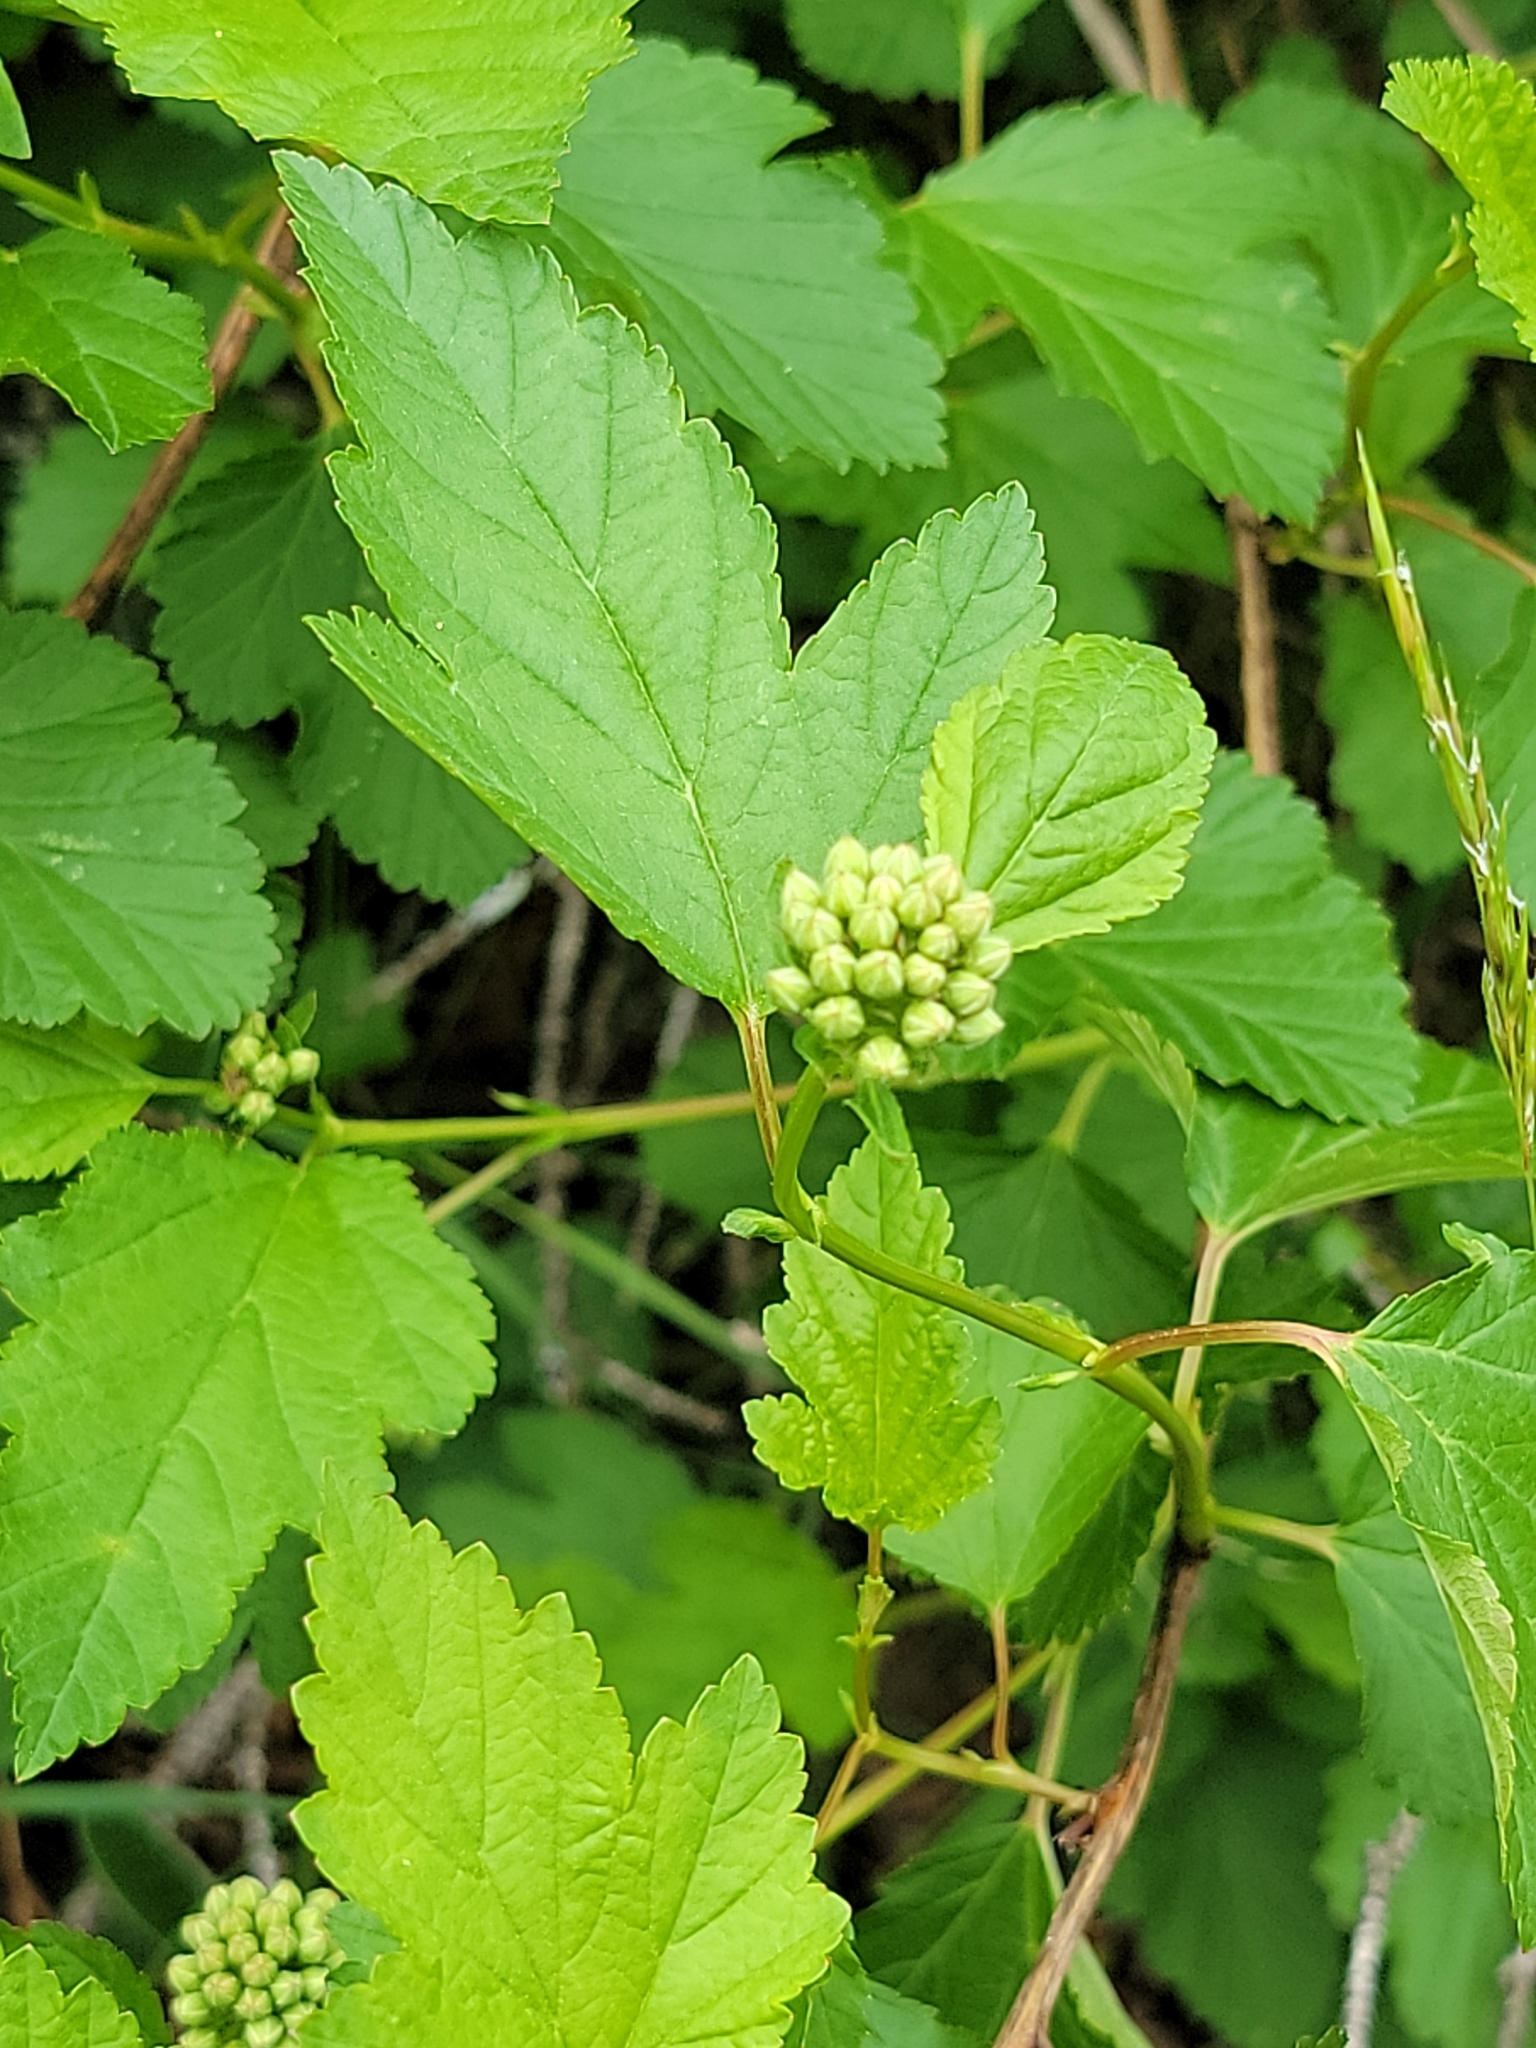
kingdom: Plantae
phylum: Tracheophyta
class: Magnoliopsida
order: Rosales
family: Rosaceae
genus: Physocarpus
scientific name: Physocarpus opulifolius
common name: Ninebark
